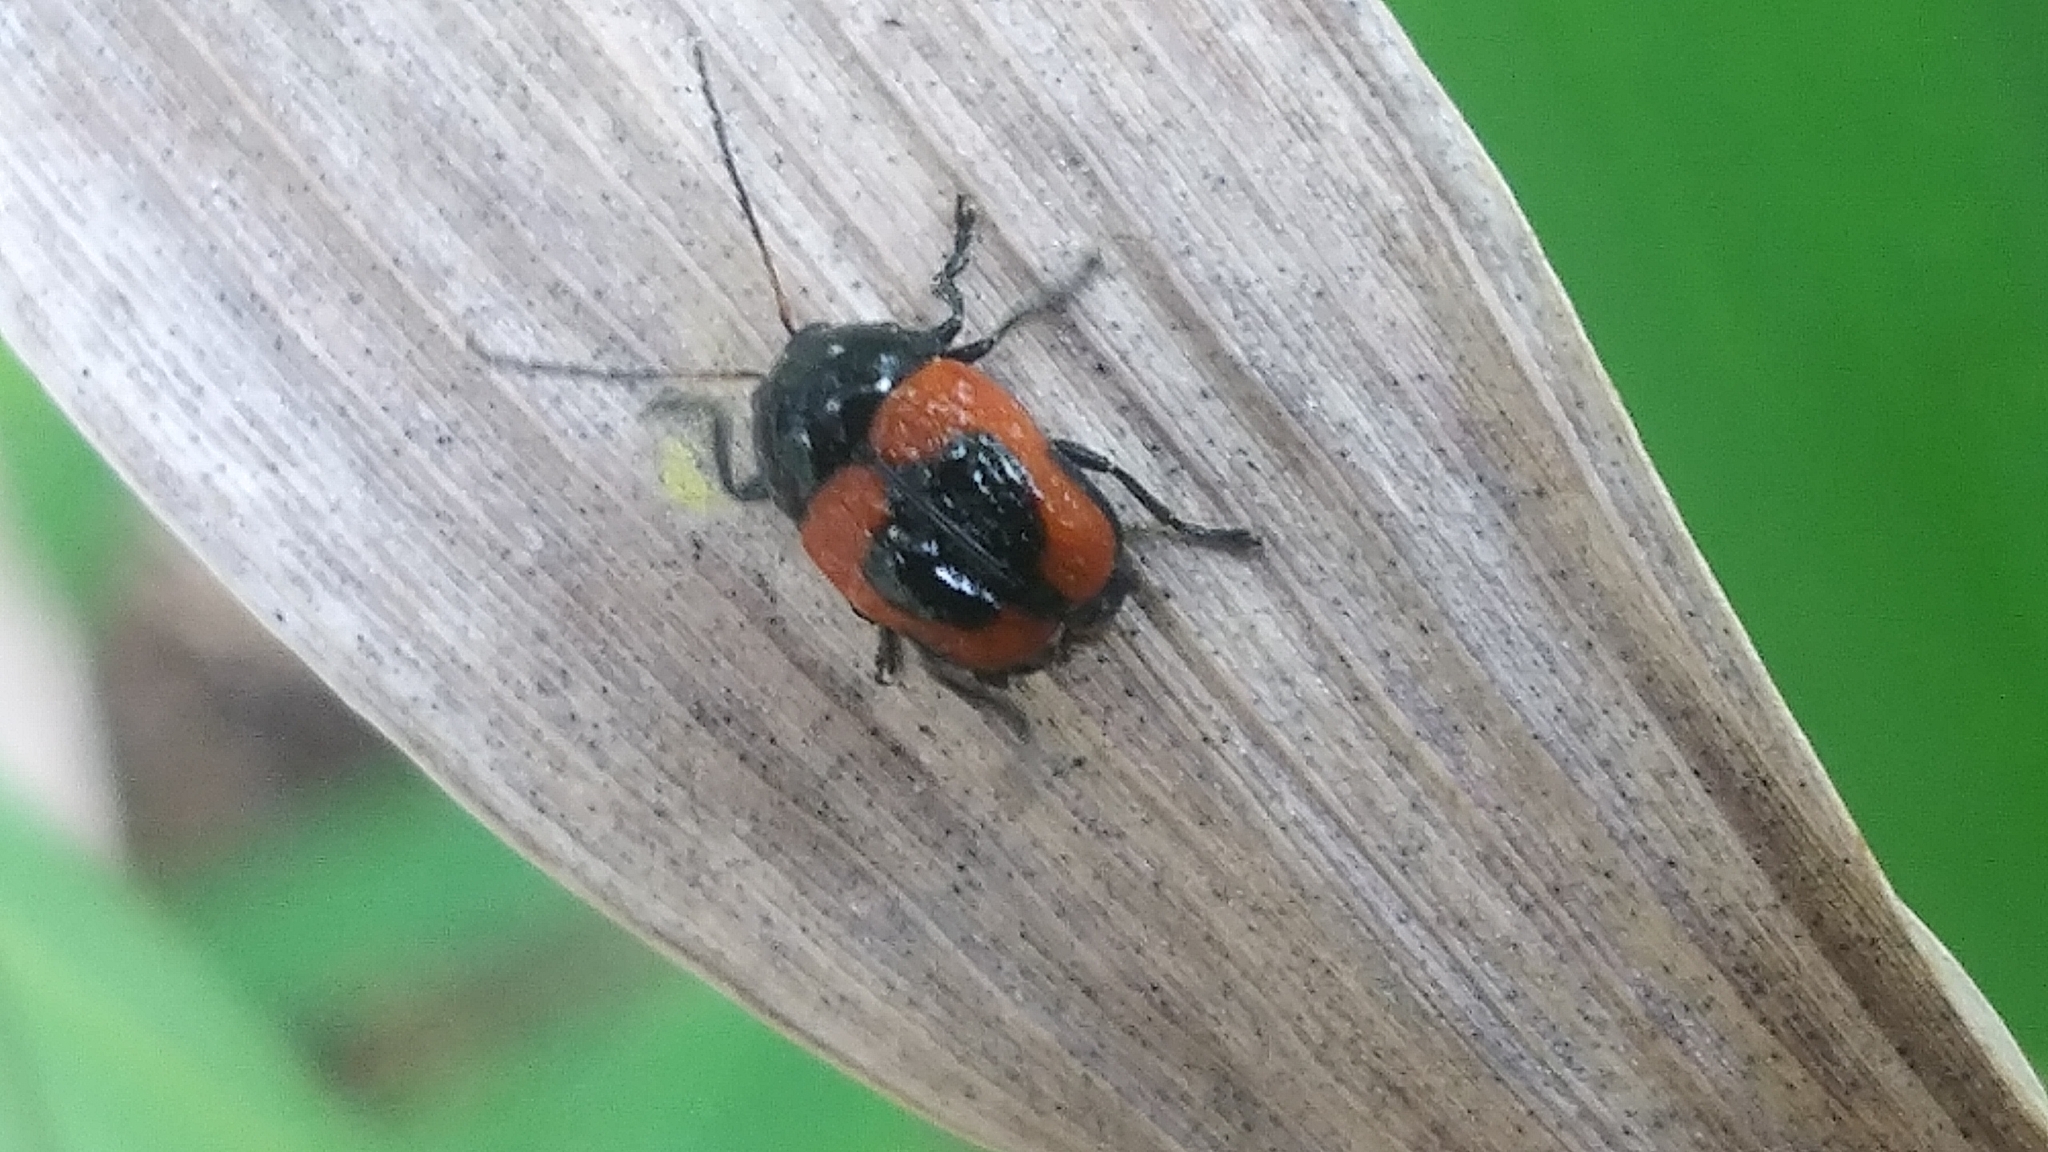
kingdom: Animalia
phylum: Arthropoda
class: Insecta
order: Coleoptera
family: Chrysomelidae
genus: Cryptocephalus
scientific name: Cryptocephalus notatus
